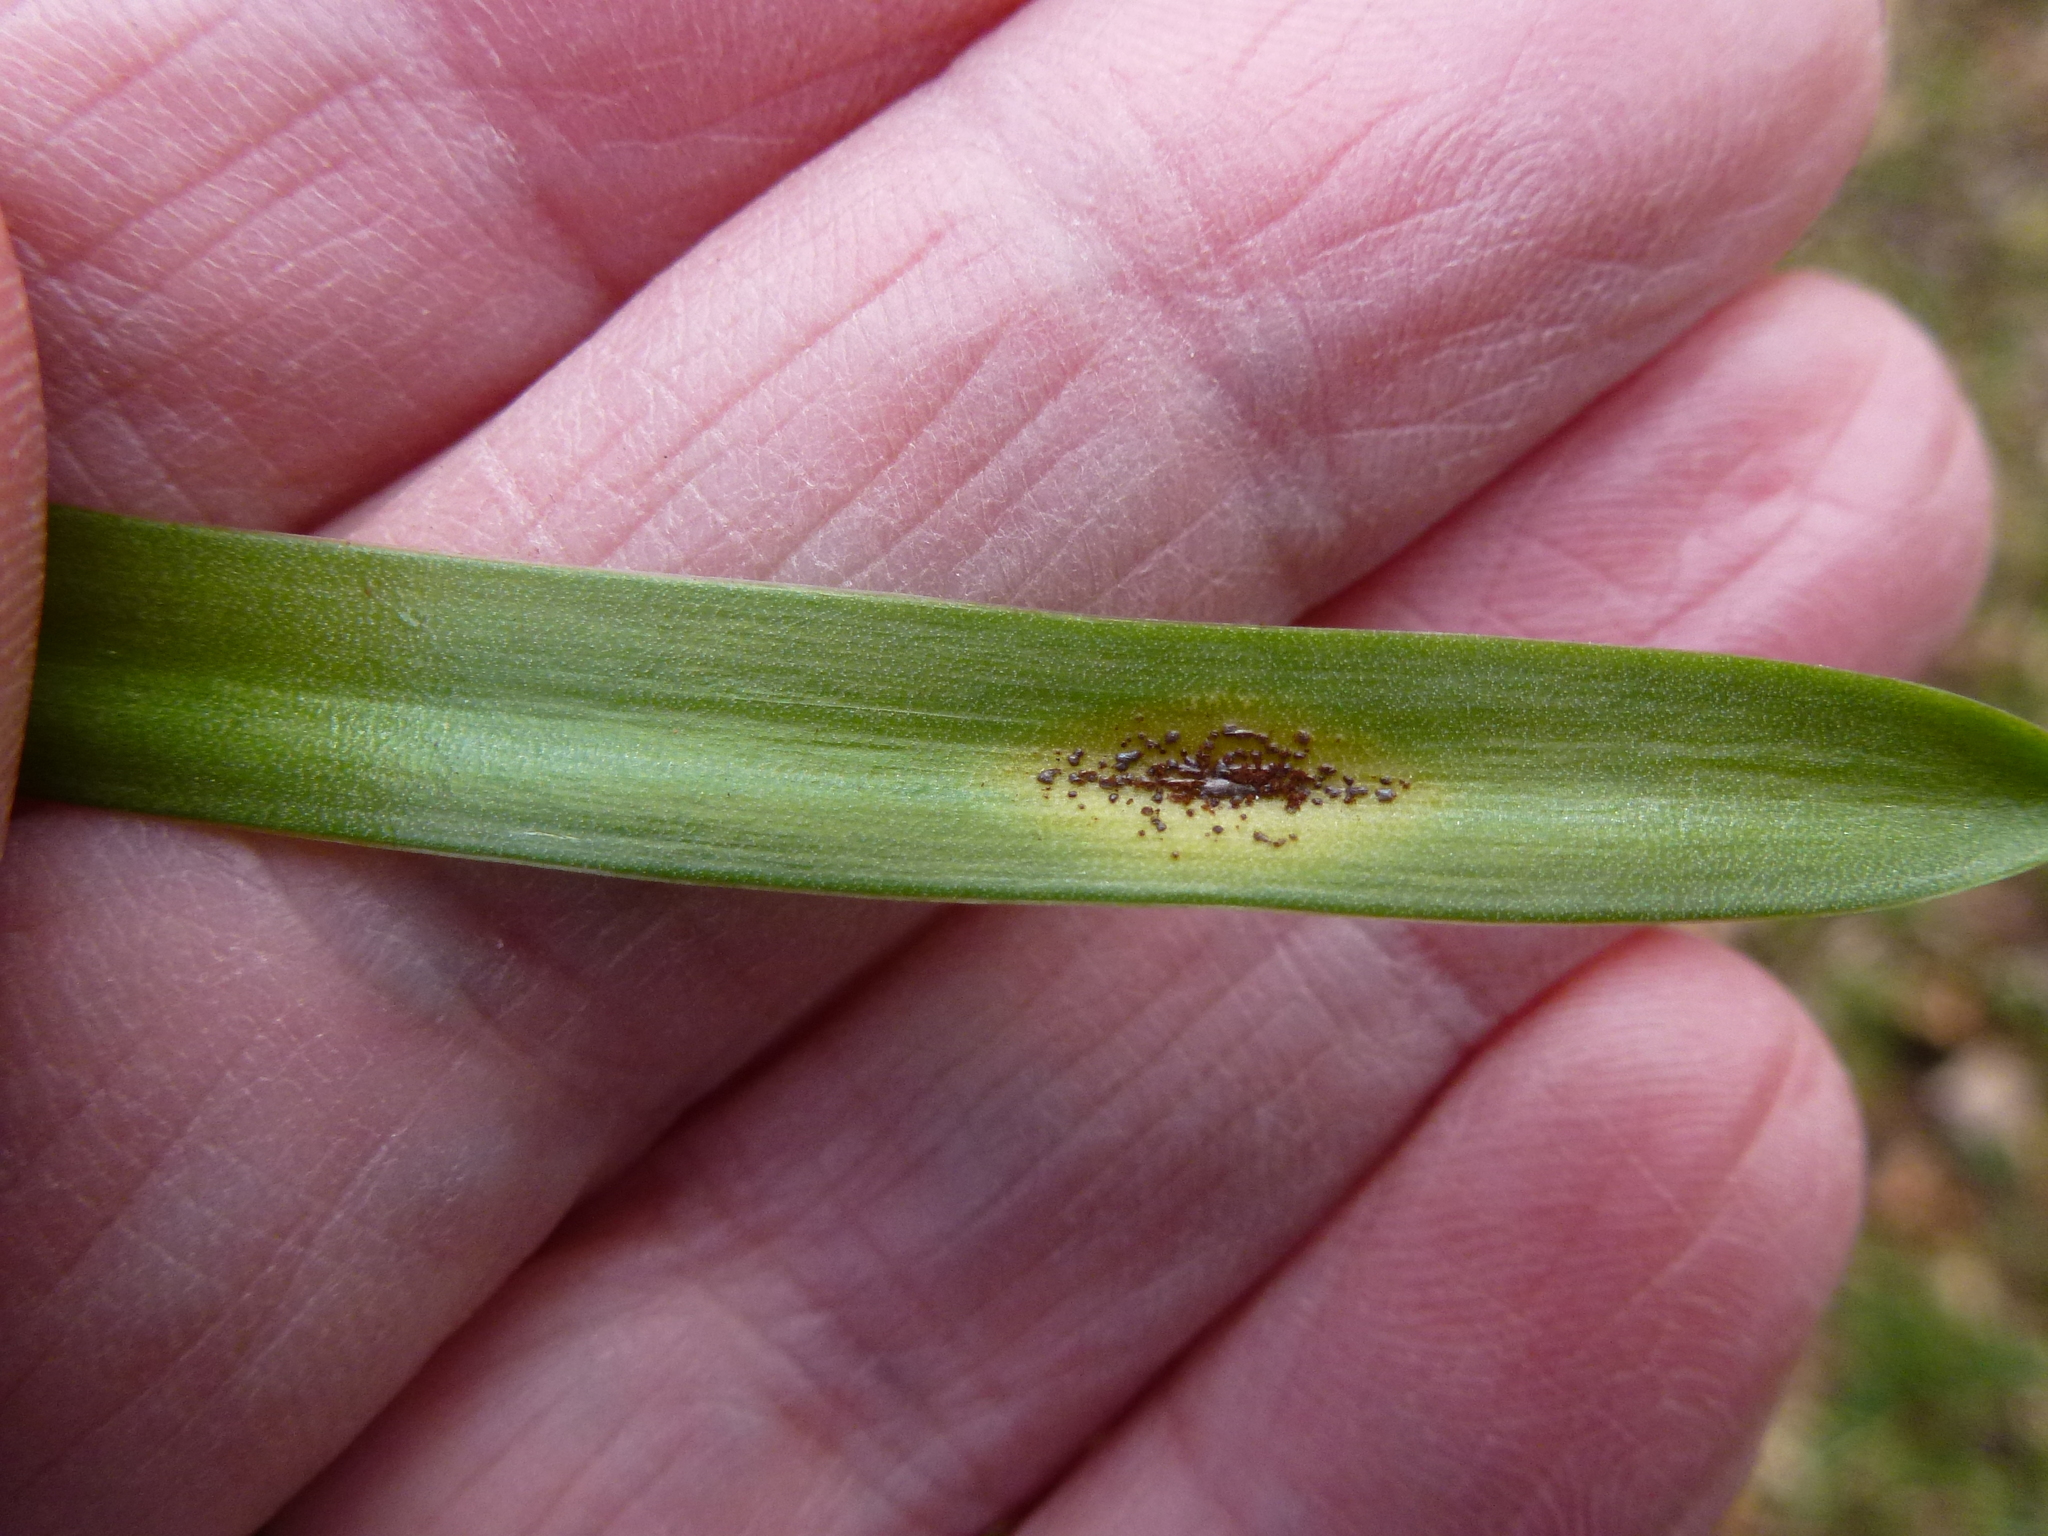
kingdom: Fungi
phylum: Basidiomycota
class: Pucciniomycetes
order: Pucciniales
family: Pucciniaceae
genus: Uromyces
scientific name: Uromyces hyacinthi
